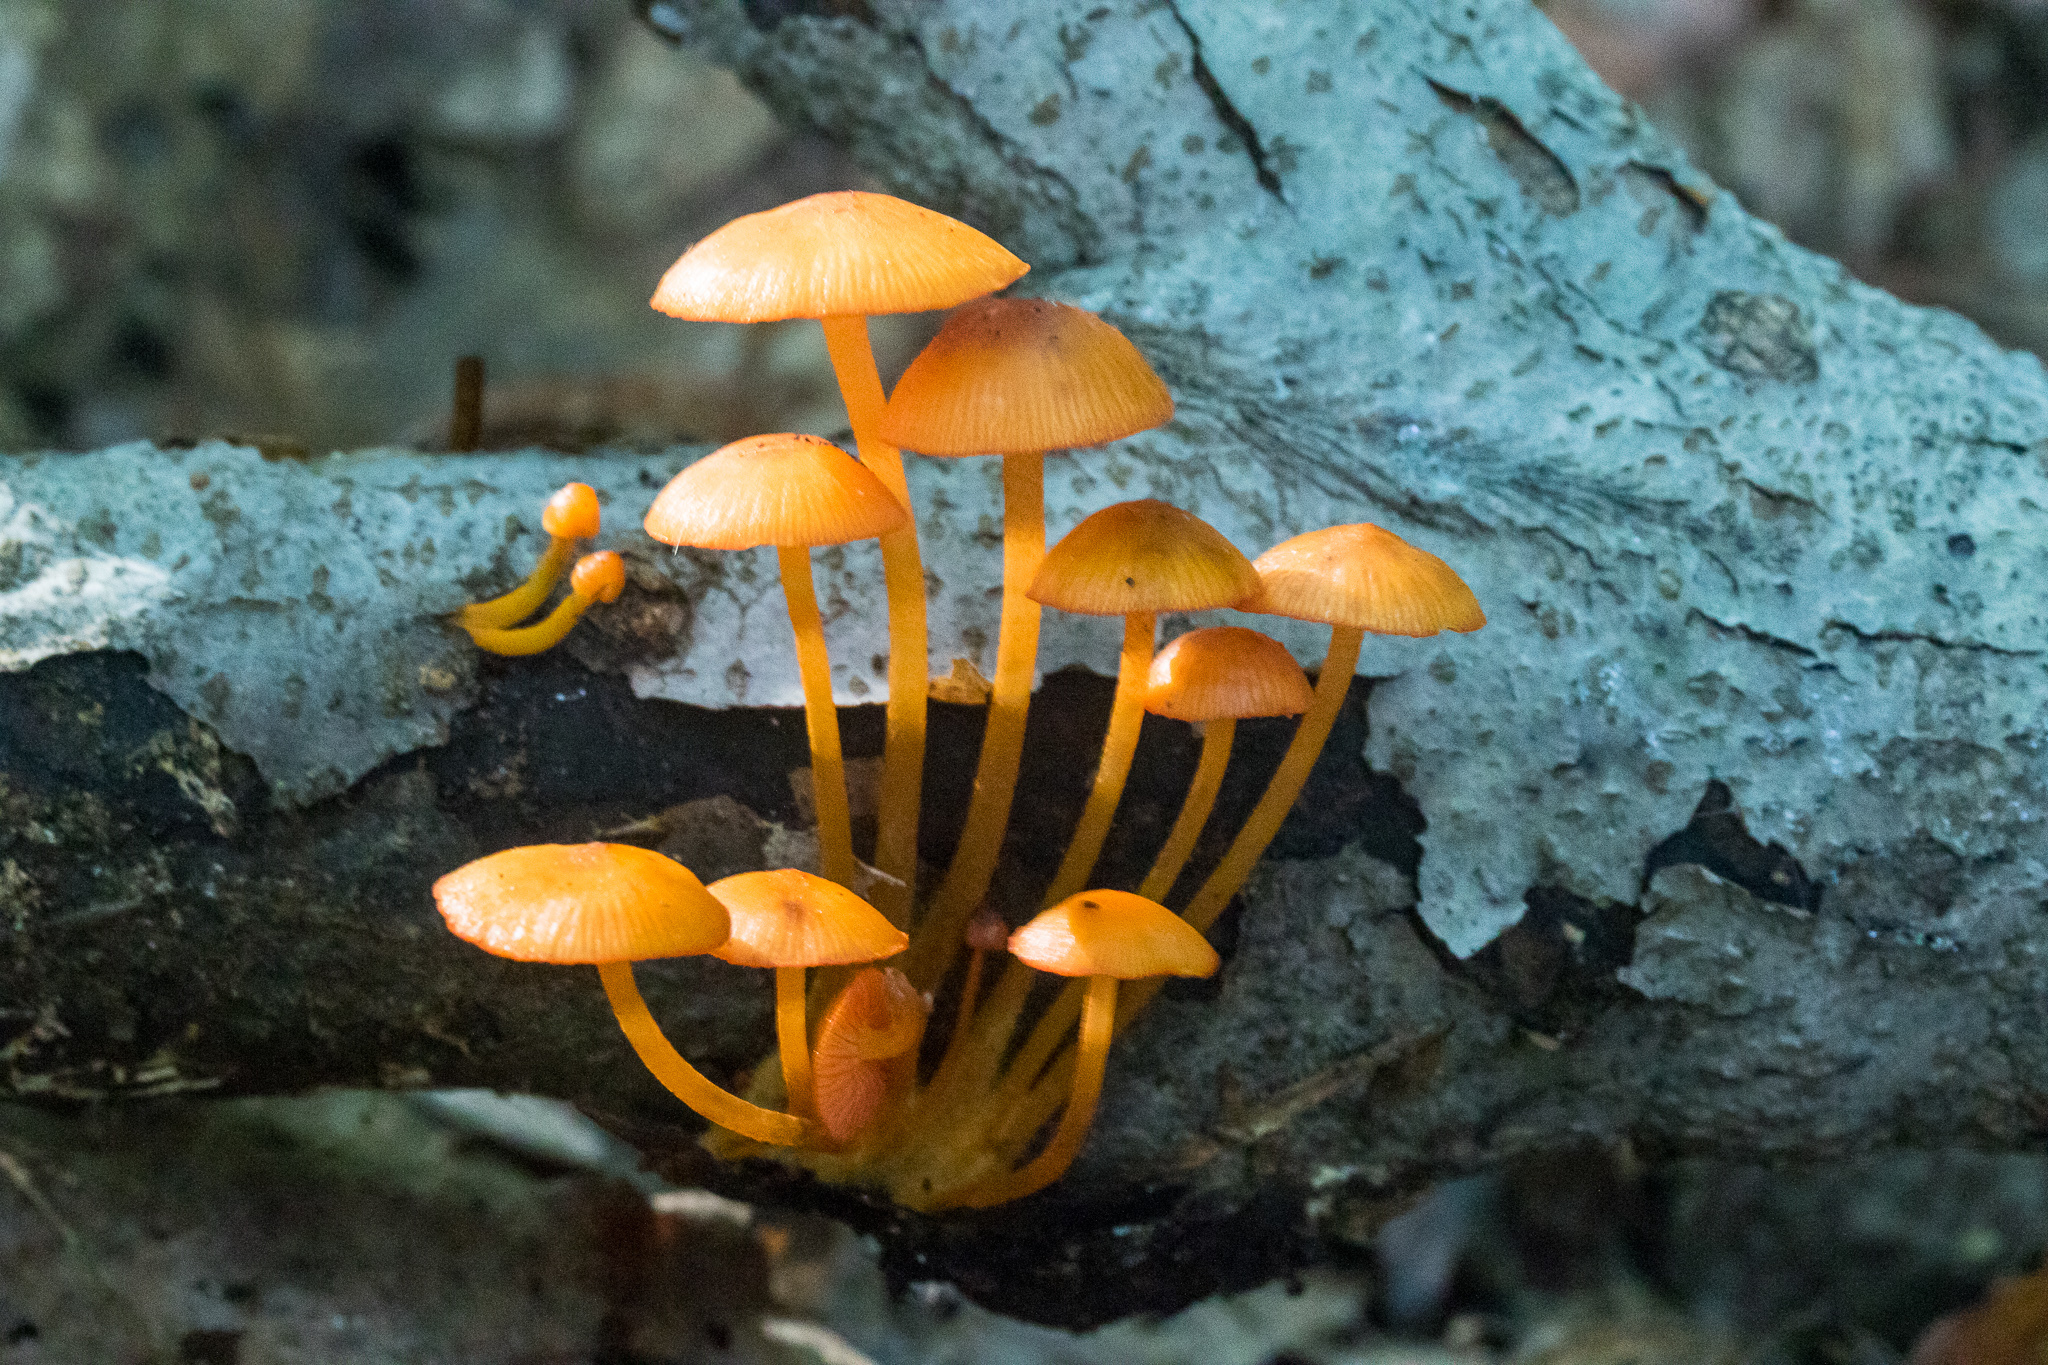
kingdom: Fungi
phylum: Basidiomycota
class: Agaricomycetes
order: Agaricales
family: Mycenaceae
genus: Mycena
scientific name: Mycena leaiana
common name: Orange mycena
